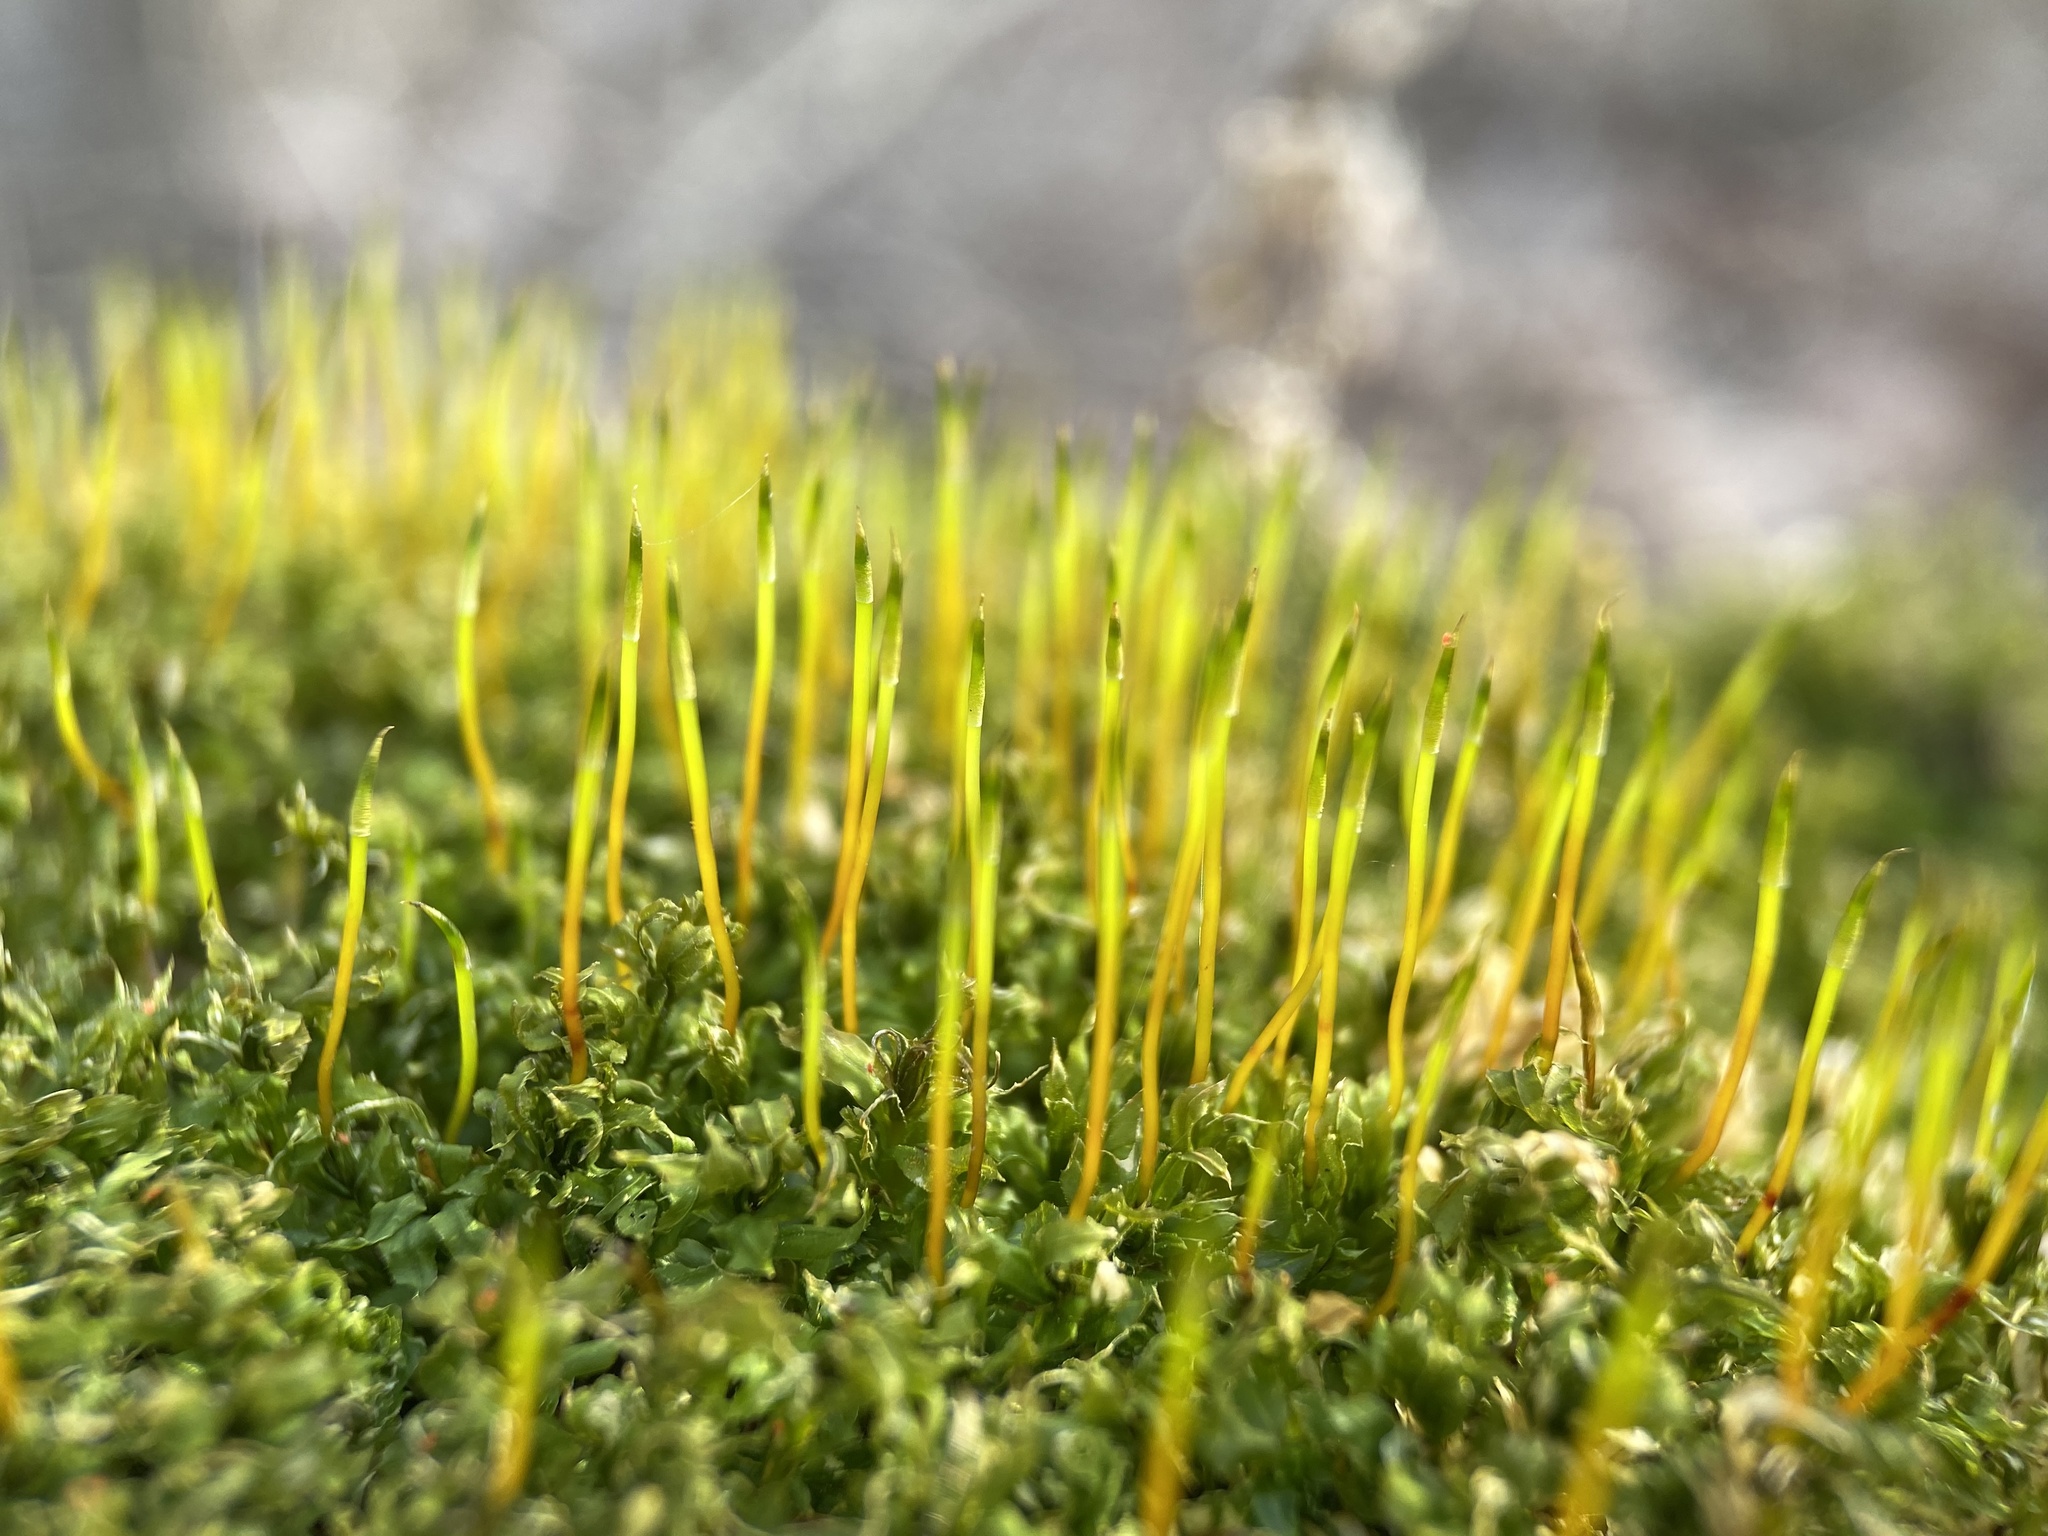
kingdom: Plantae
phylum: Bryophyta
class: Bryopsida
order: Bryales
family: Mniaceae
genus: Plagiomnium
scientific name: Plagiomnium cuspidatum
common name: Woodsy leafy moss
